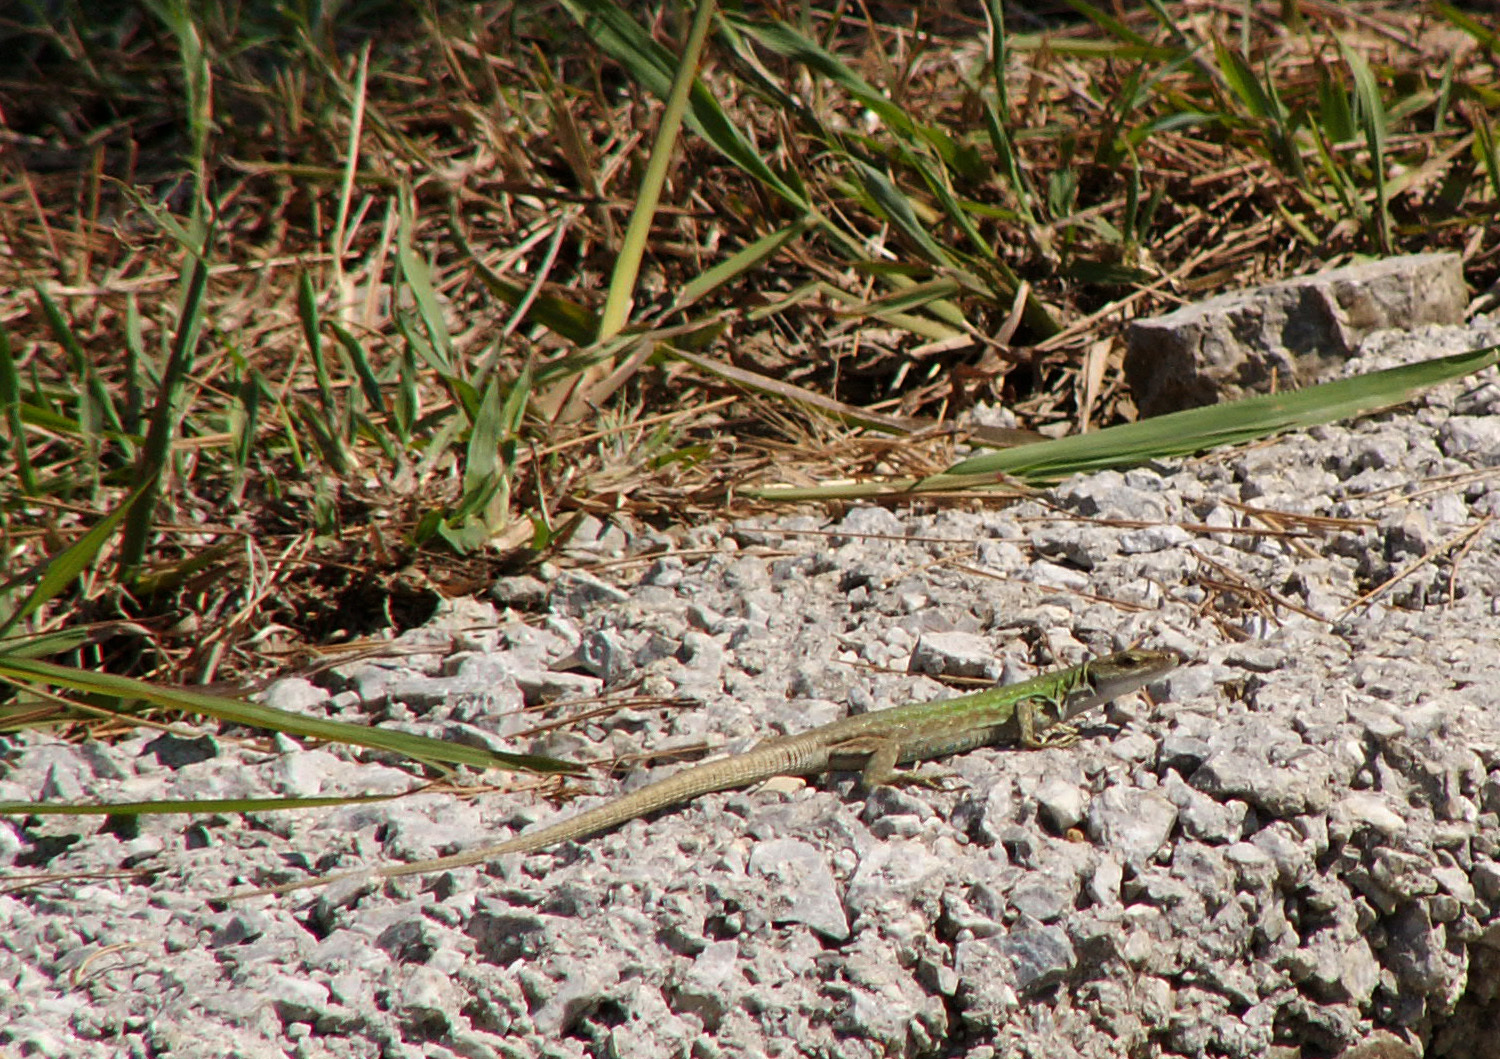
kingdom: Animalia
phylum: Chordata
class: Squamata
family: Lacertidae
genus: Podarcis
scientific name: Podarcis siculus
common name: Italian wall lizard
